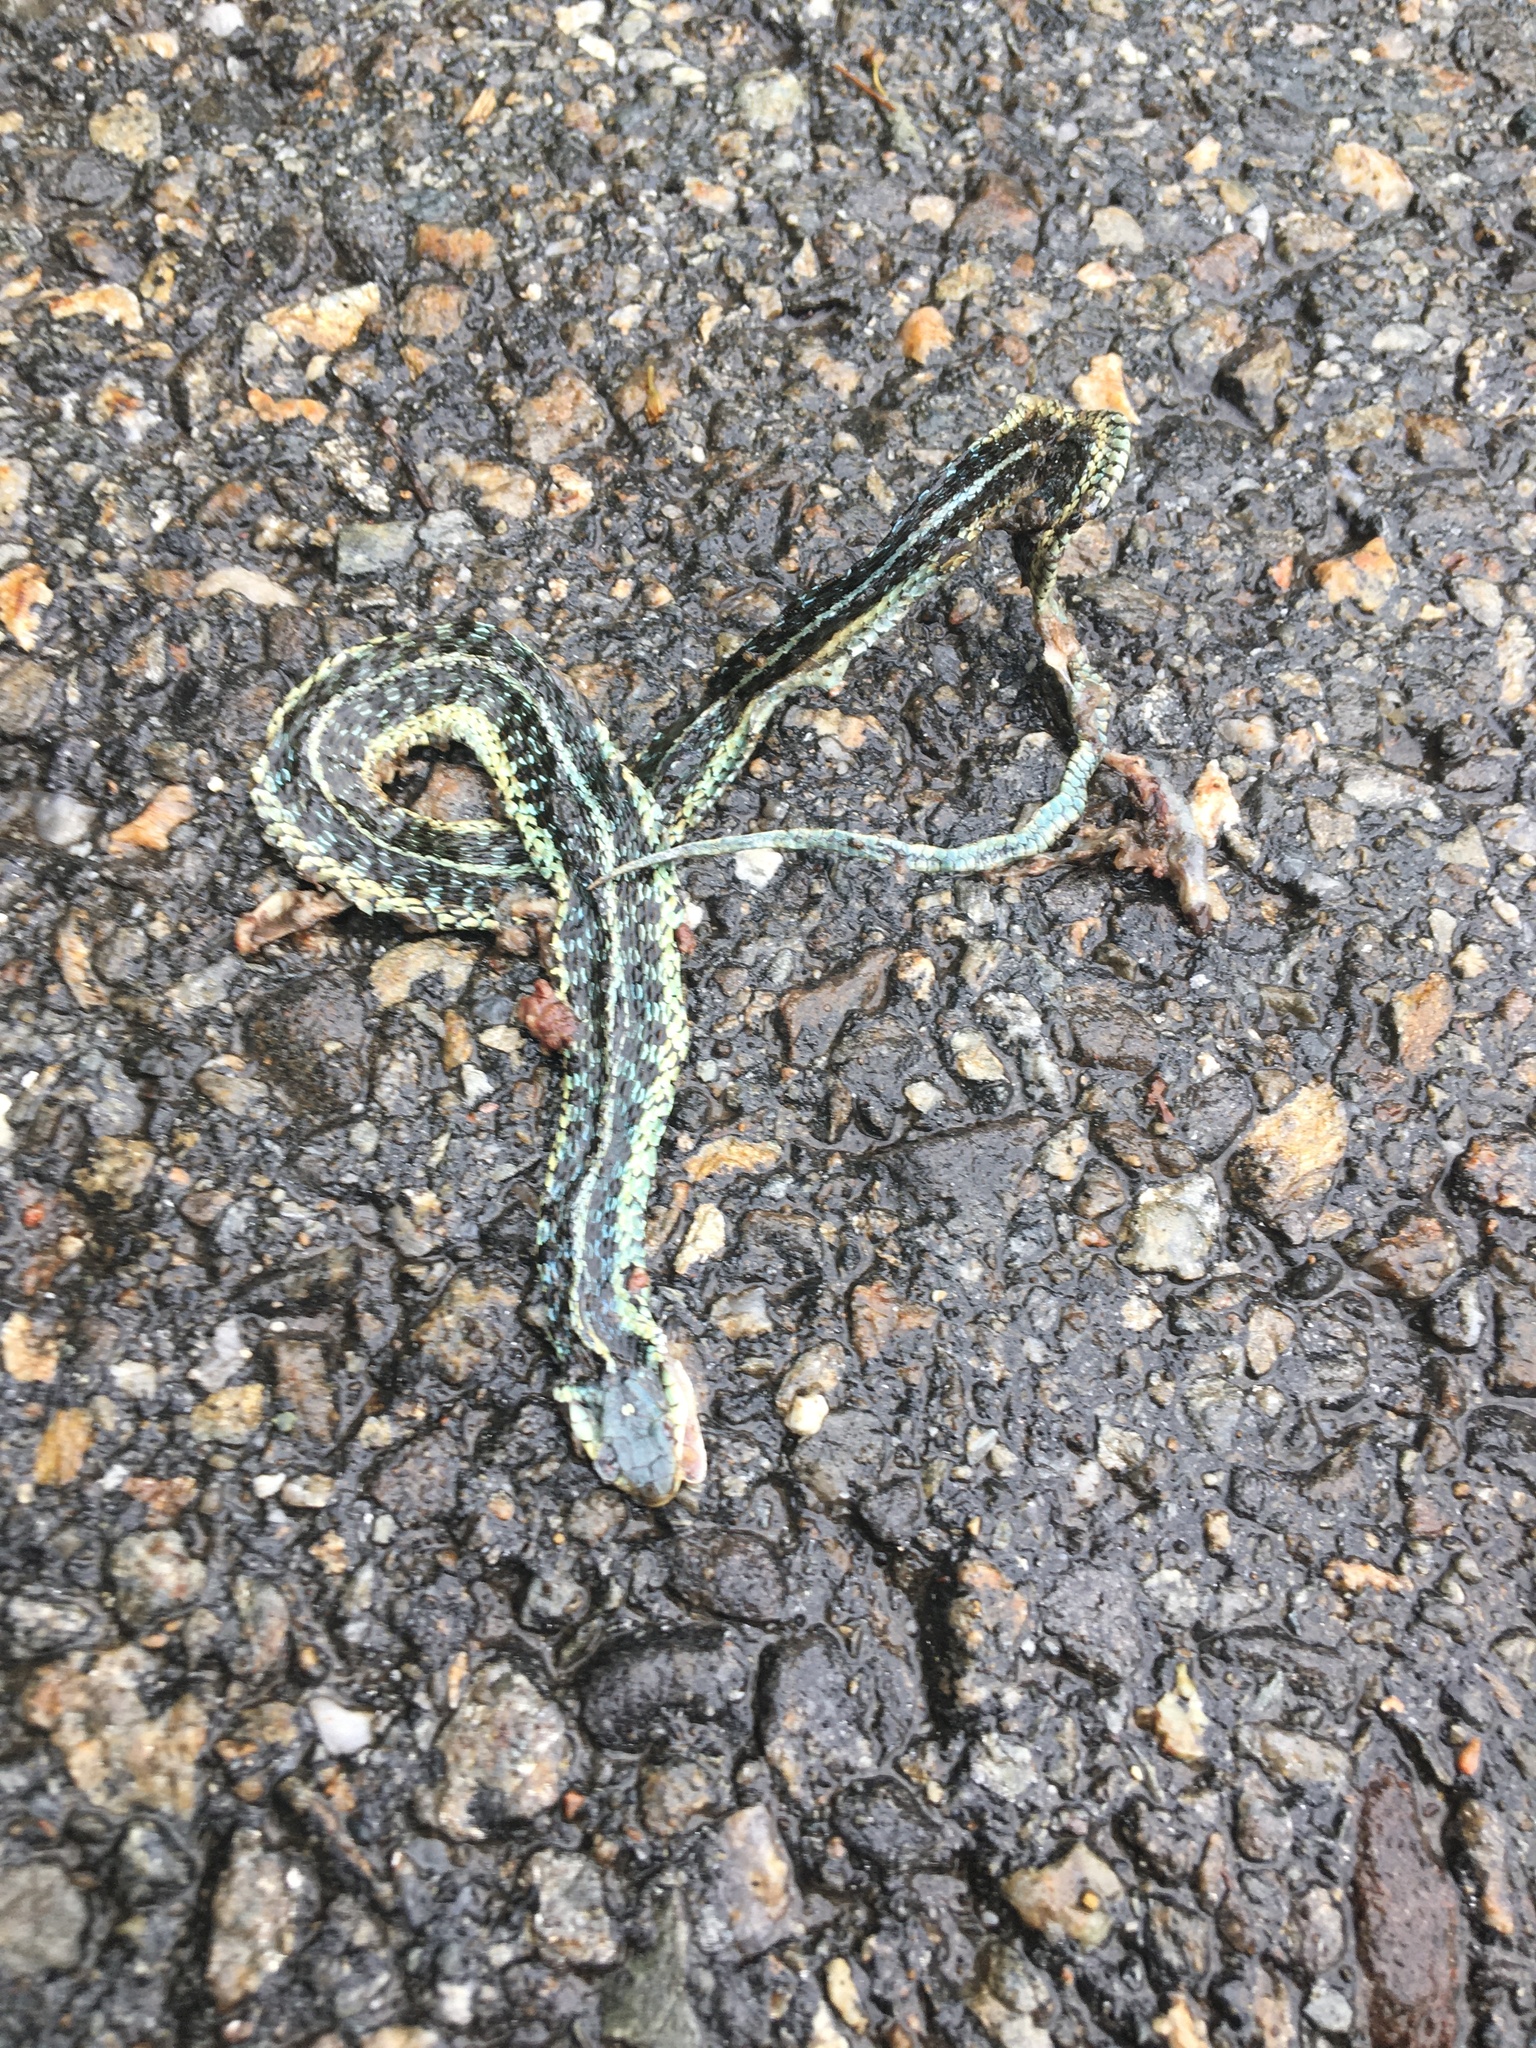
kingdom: Animalia
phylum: Chordata
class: Squamata
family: Colubridae
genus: Thamnophis
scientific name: Thamnophis sirtalis
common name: Common garter snake
